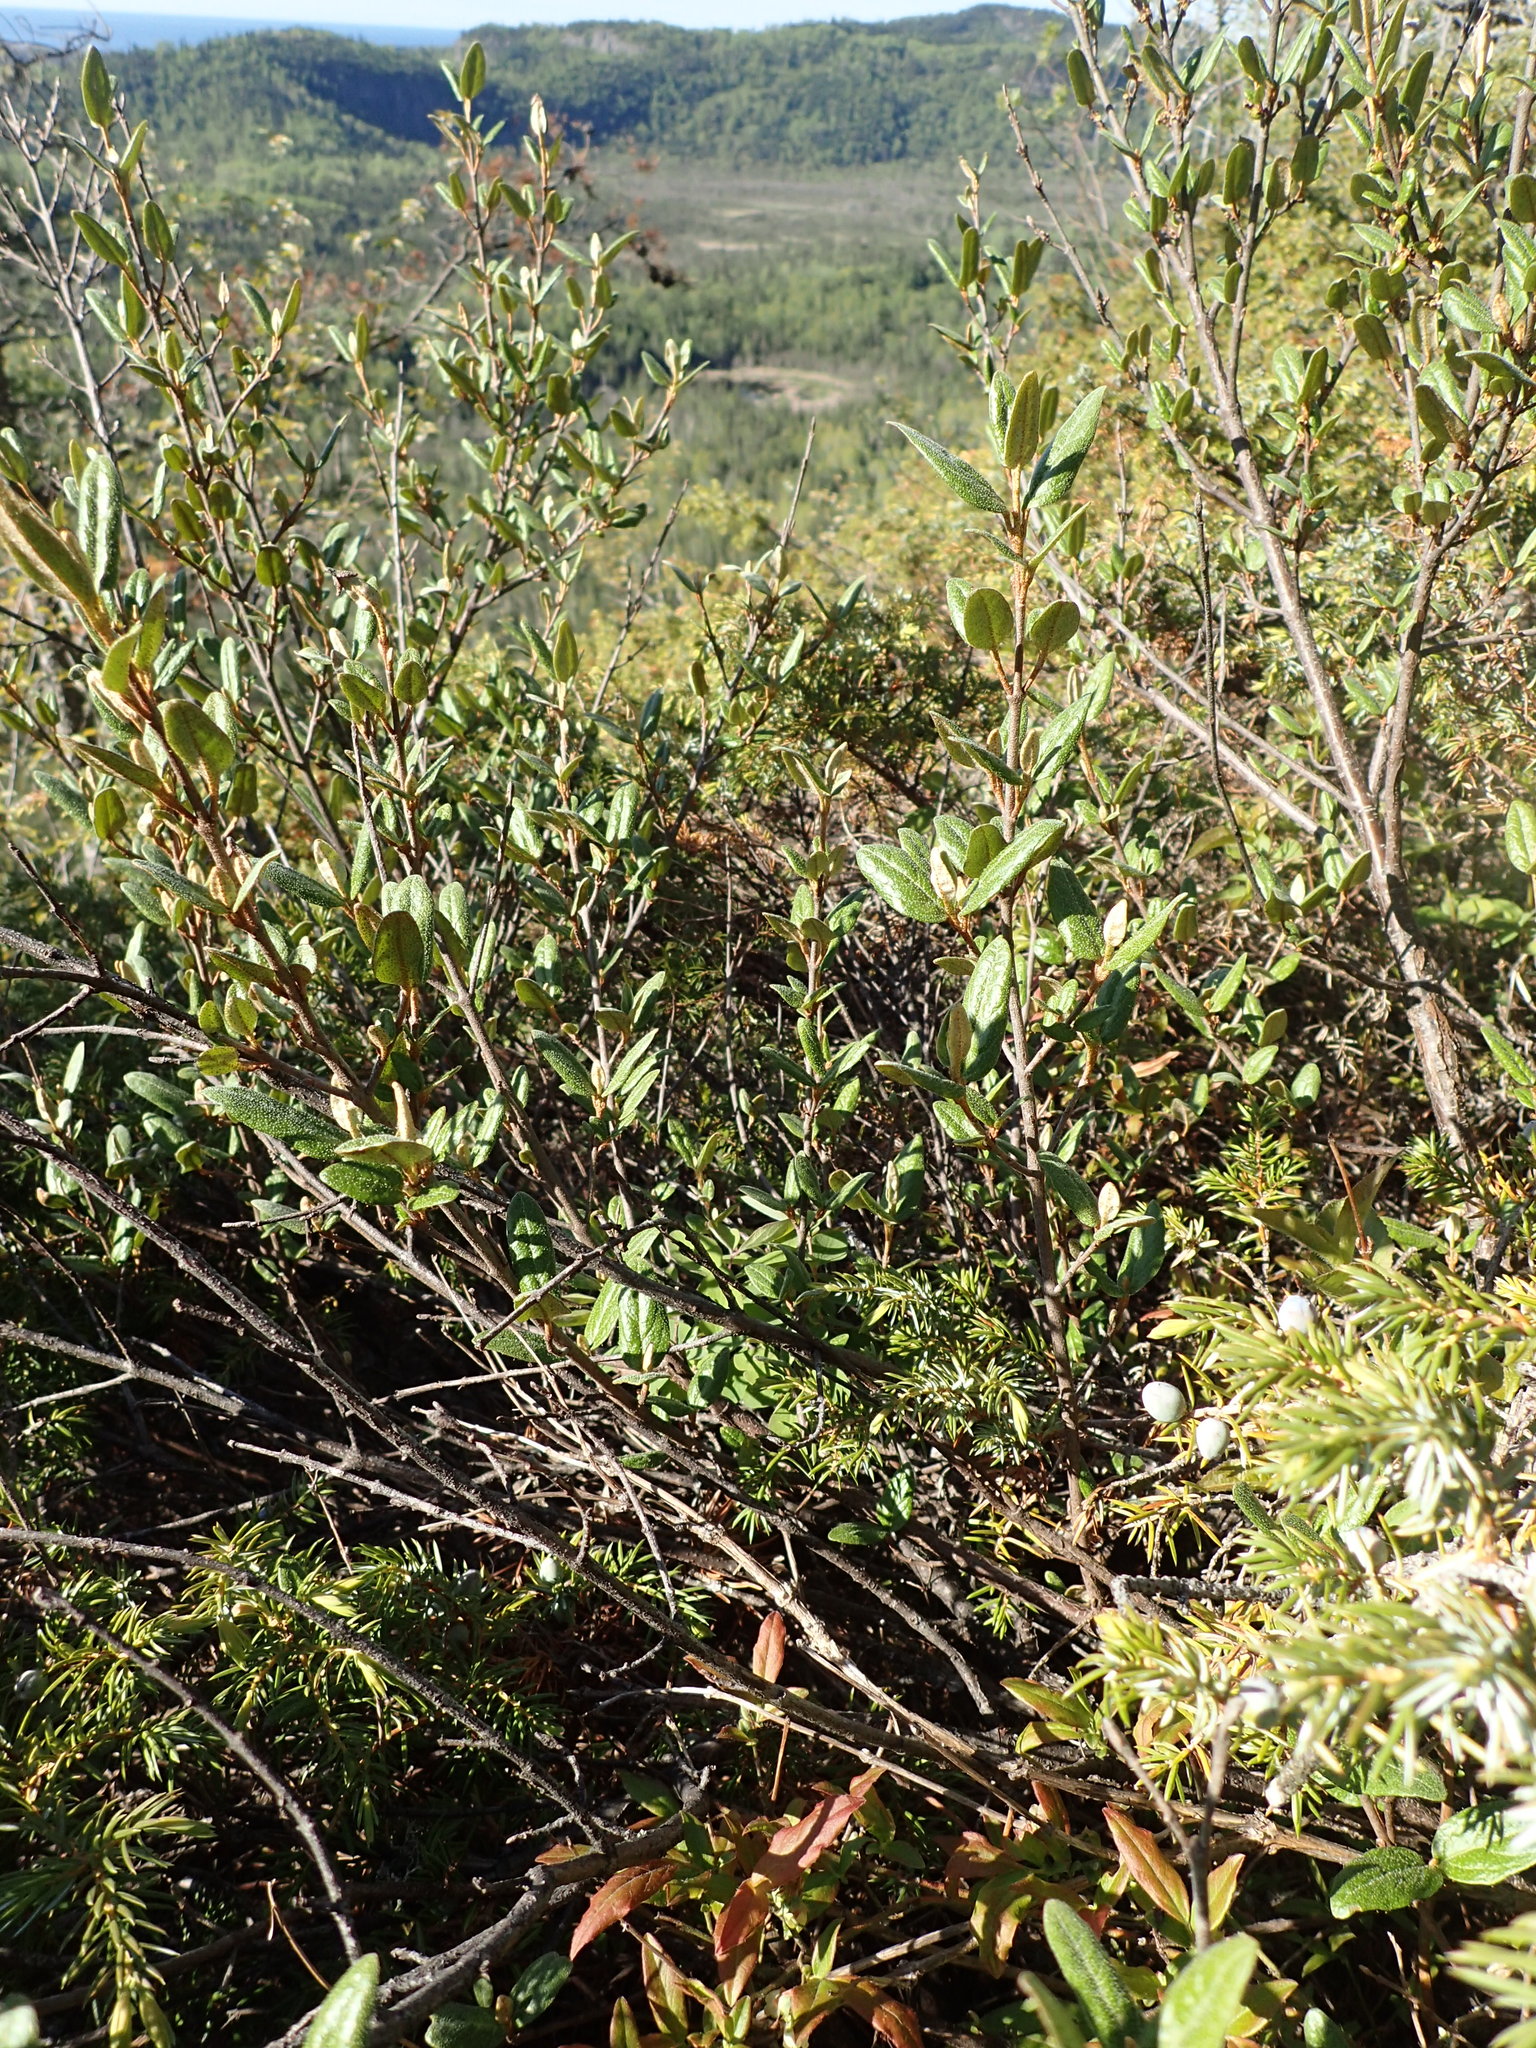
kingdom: Plantae
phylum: Tracheophyta
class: Magnoliopsida
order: Rosales
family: Elaeagnaceae
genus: Shepherdia
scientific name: Shepherdia canadensis
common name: Soapberry
